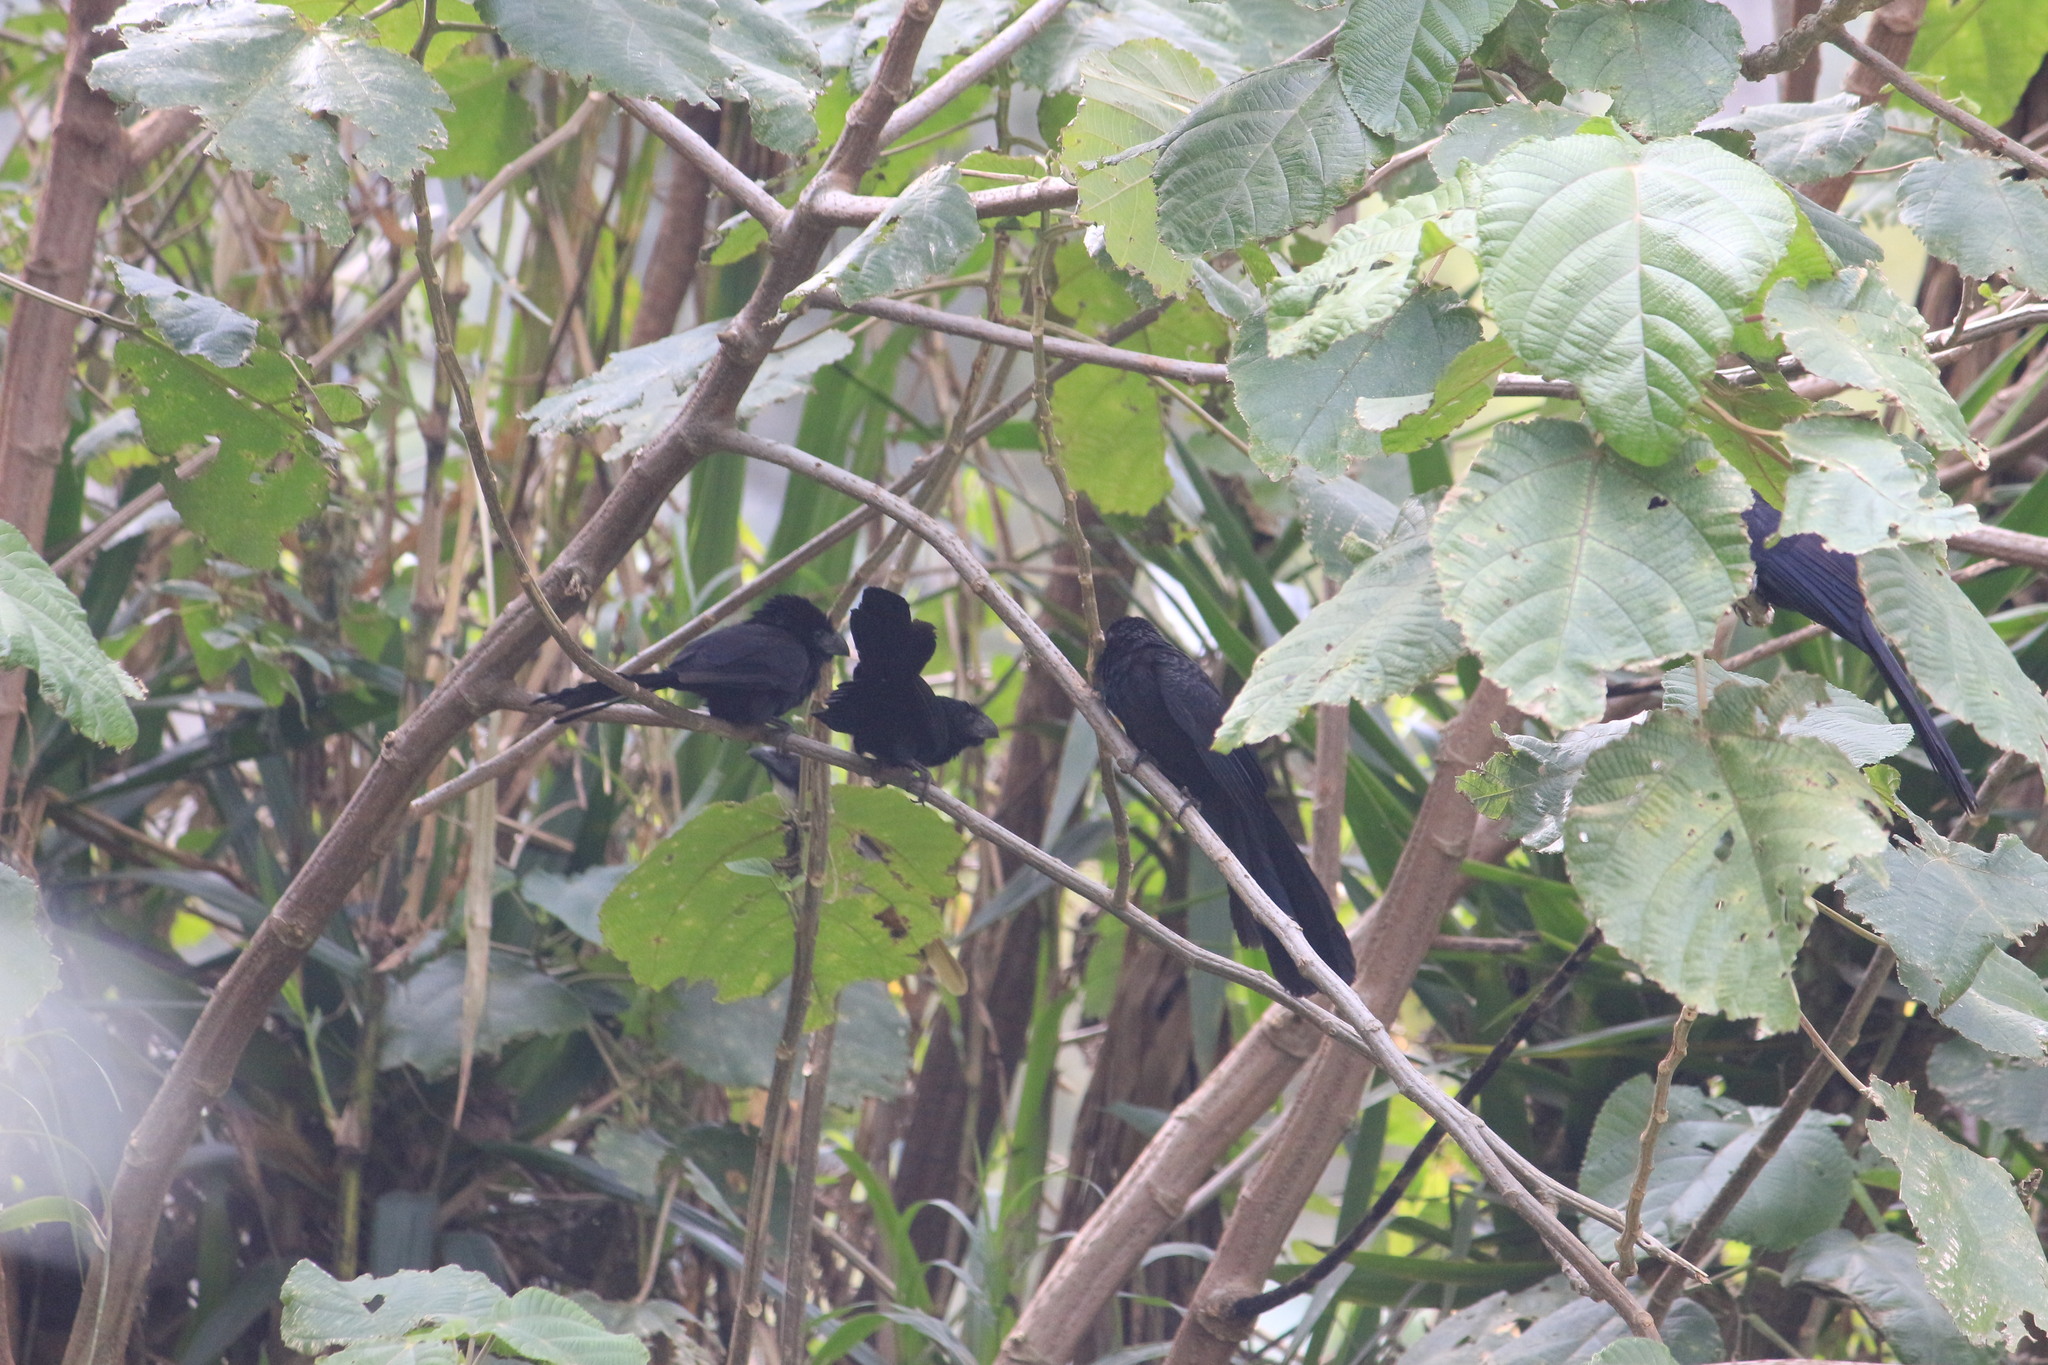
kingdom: Animalia
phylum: Chordata
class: Aves
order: Cuculiformes
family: Cuculidae
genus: Crotophaga
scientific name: Crotophaga sulcirostris
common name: Groove-billed ani
